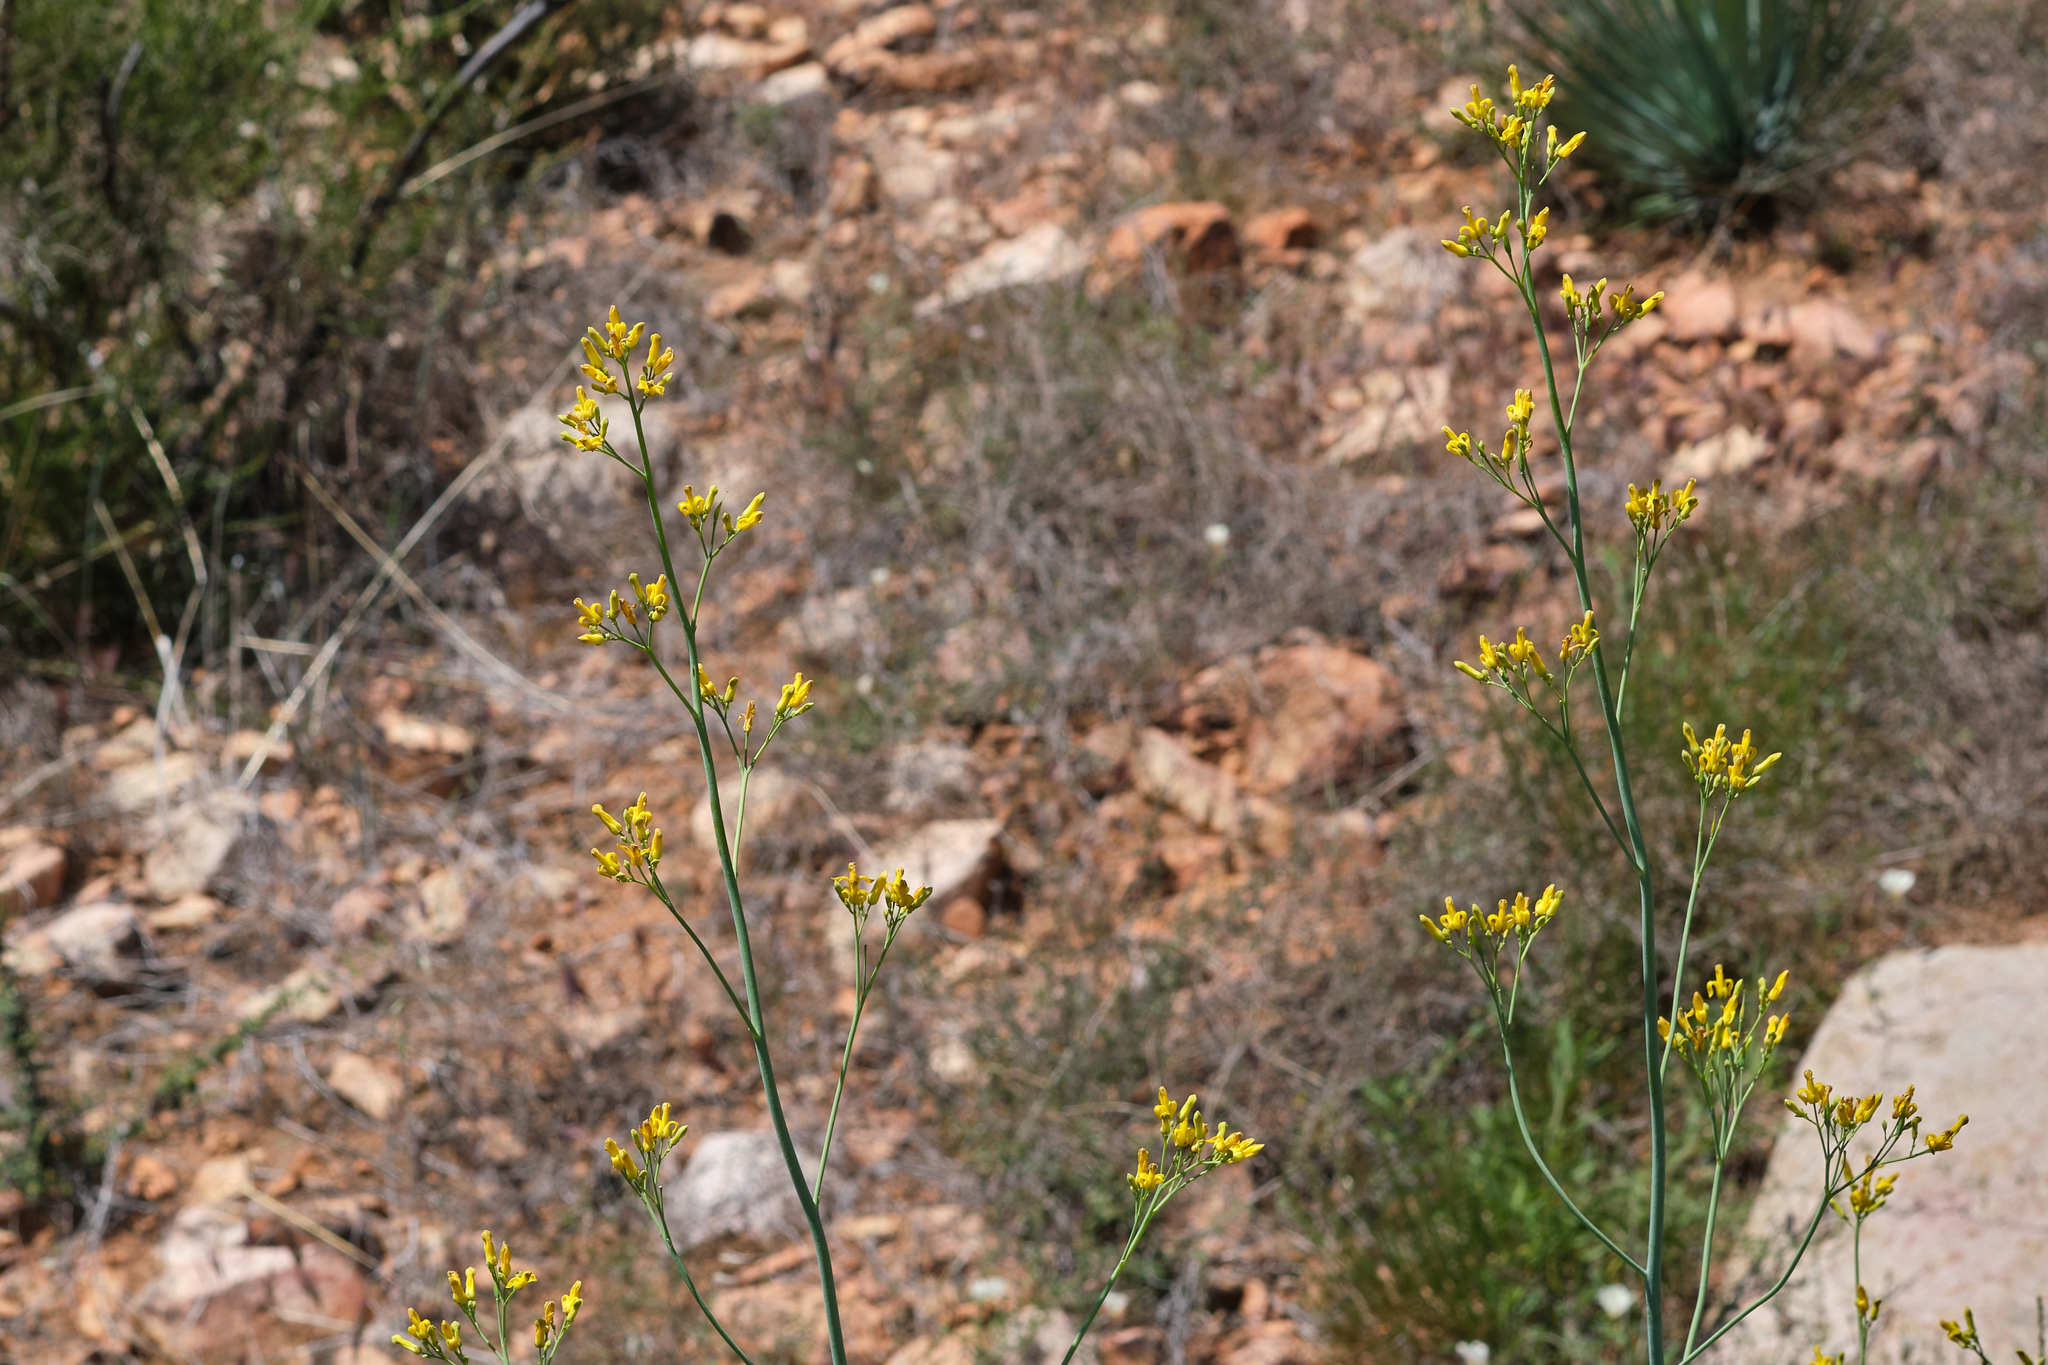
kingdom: Plantae
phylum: Tracheophyta
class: Magnoliopsida
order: Ranunculales
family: Papaveraceae
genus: Ehrendorferia
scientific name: Ehrendorferia chrysantha
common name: Golden eardrops
